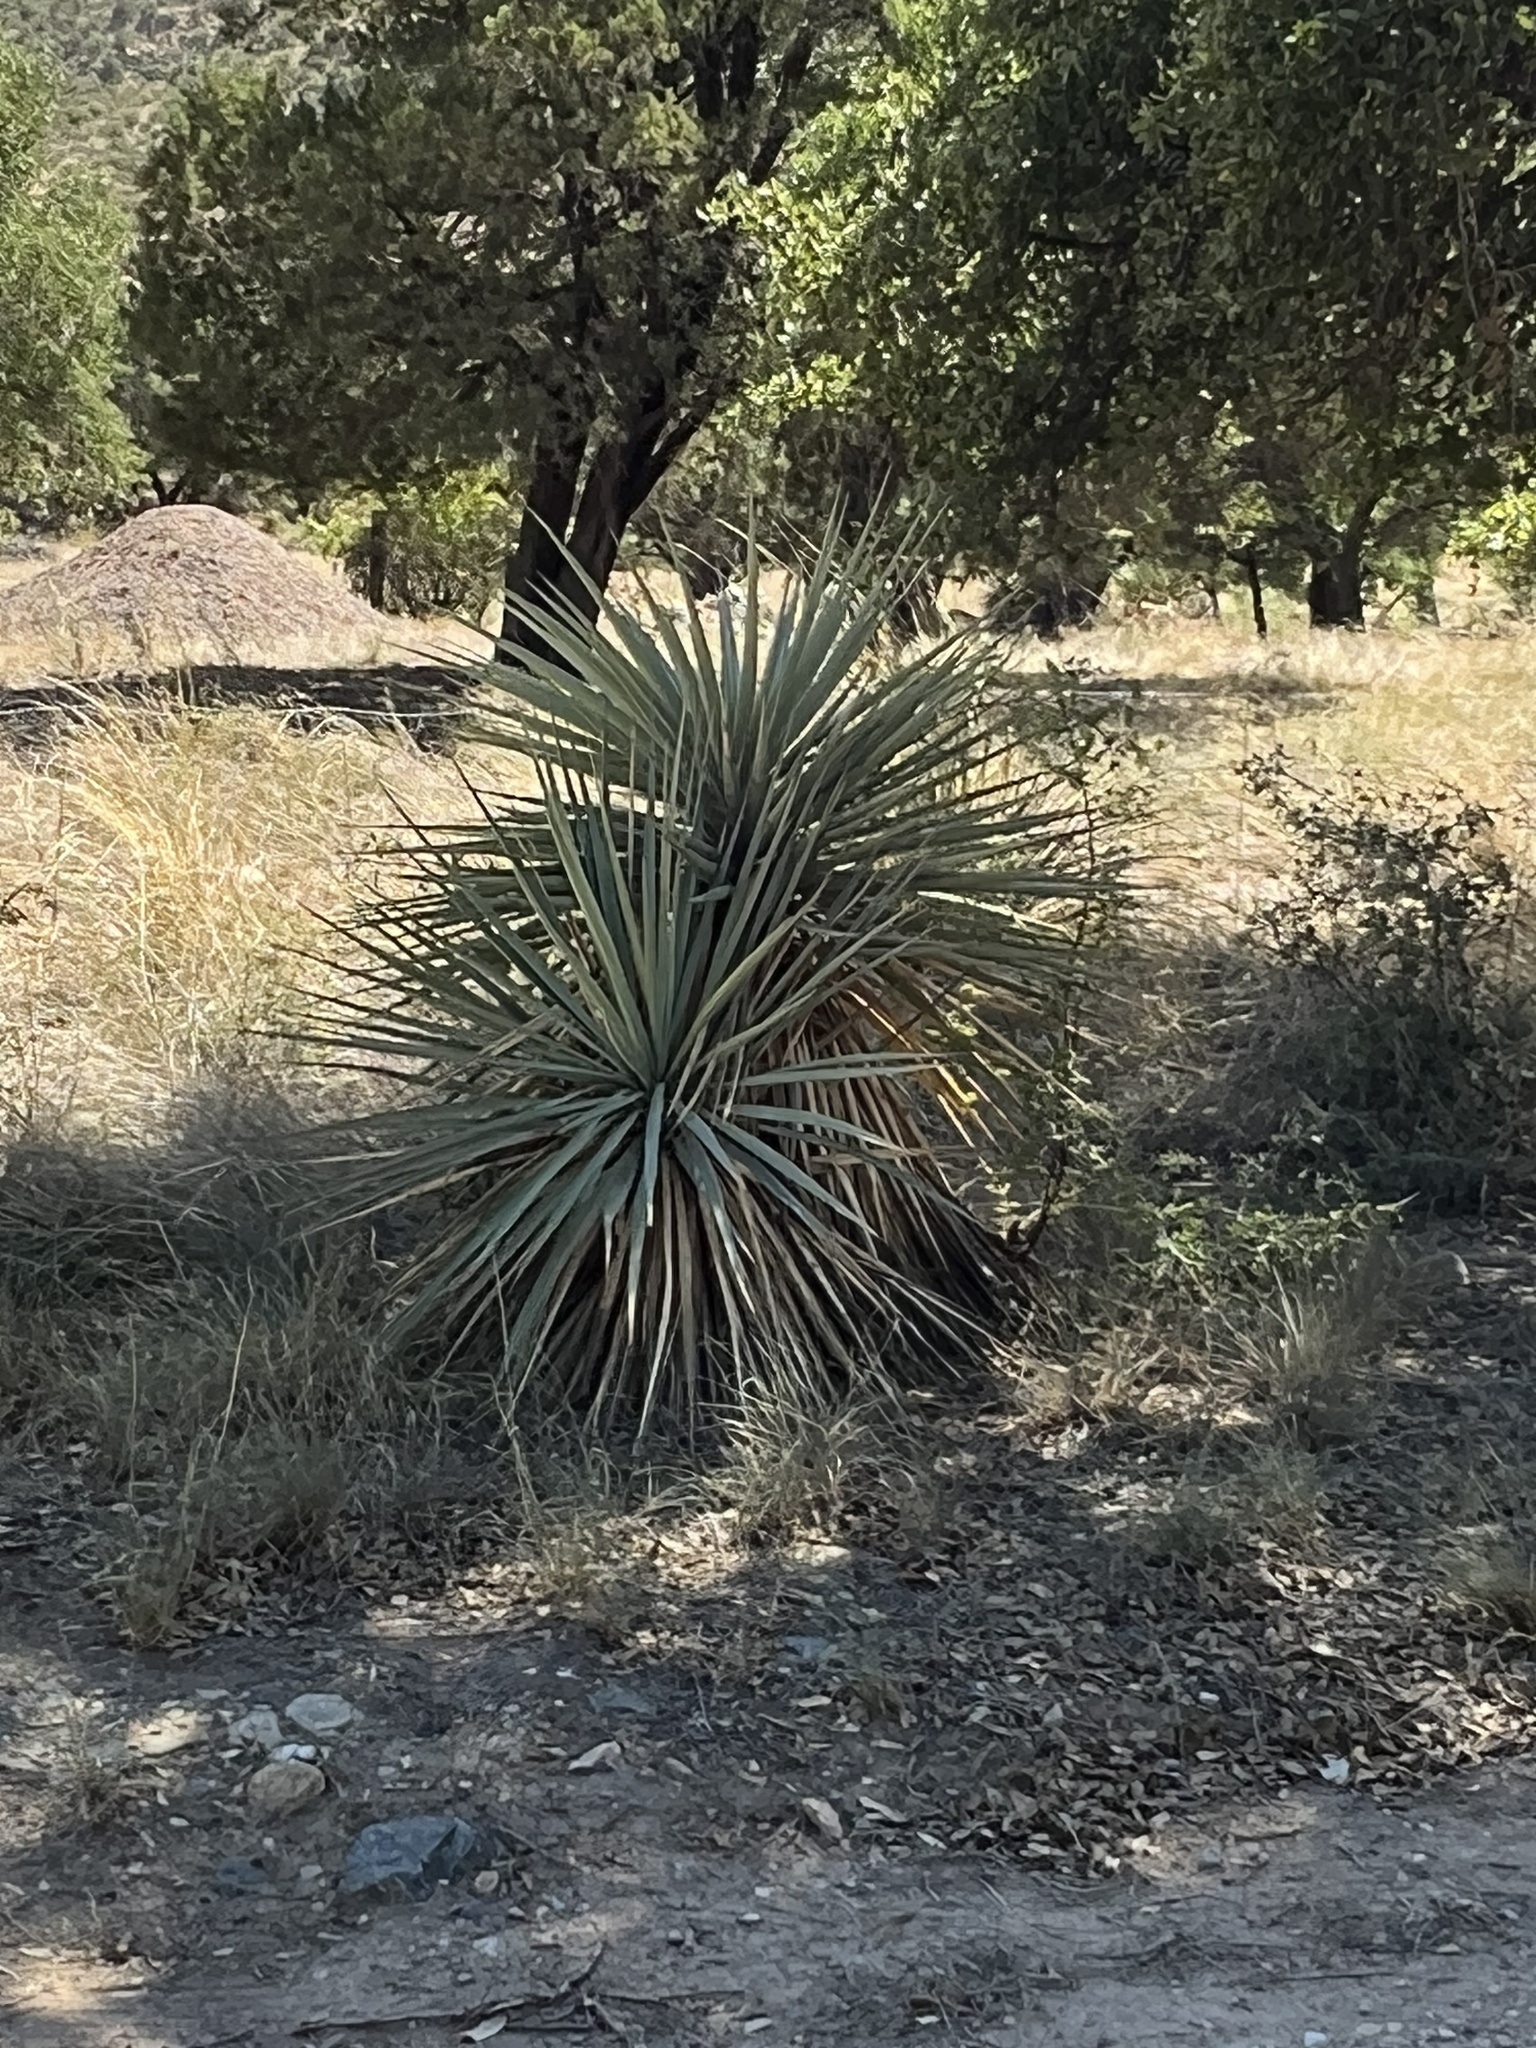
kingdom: Plantae
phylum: Tracheophyta
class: Liliopsida
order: Asparagales
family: Asparagaceae
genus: Yucca
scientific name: Yucca schottii
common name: Hoary yucca
